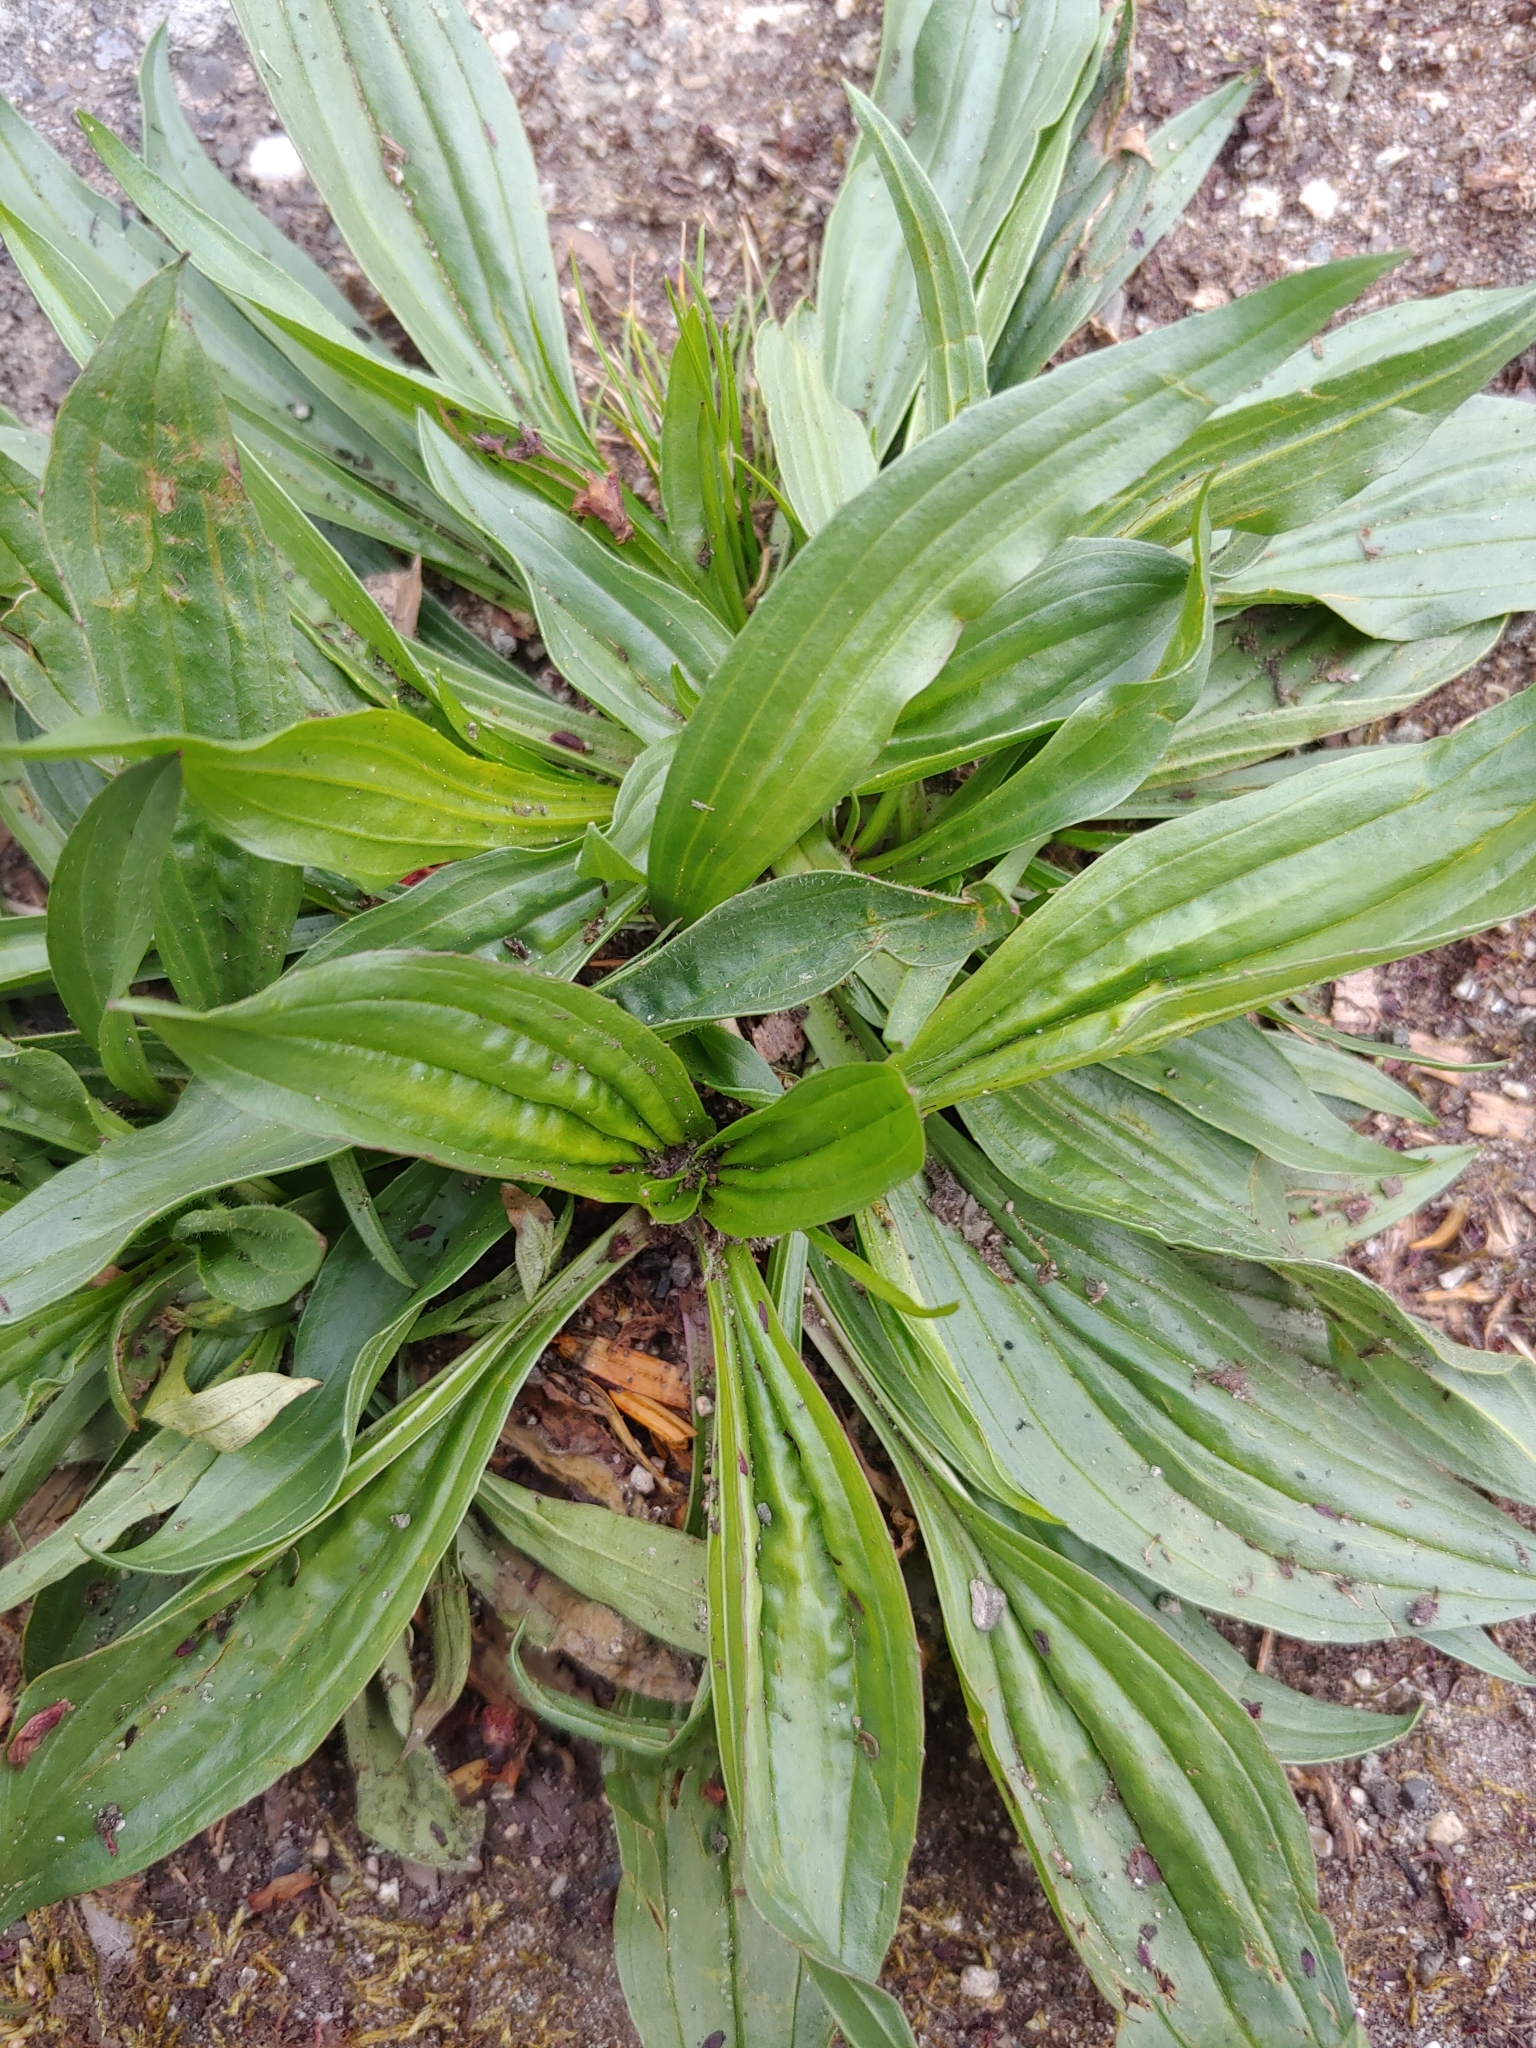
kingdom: Plantae
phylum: Tracheophyta
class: Magnoliopsida
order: Lamiales
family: Plantaginaceae
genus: Plantago
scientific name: Plantago lanceolata
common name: Ribwort plantain
